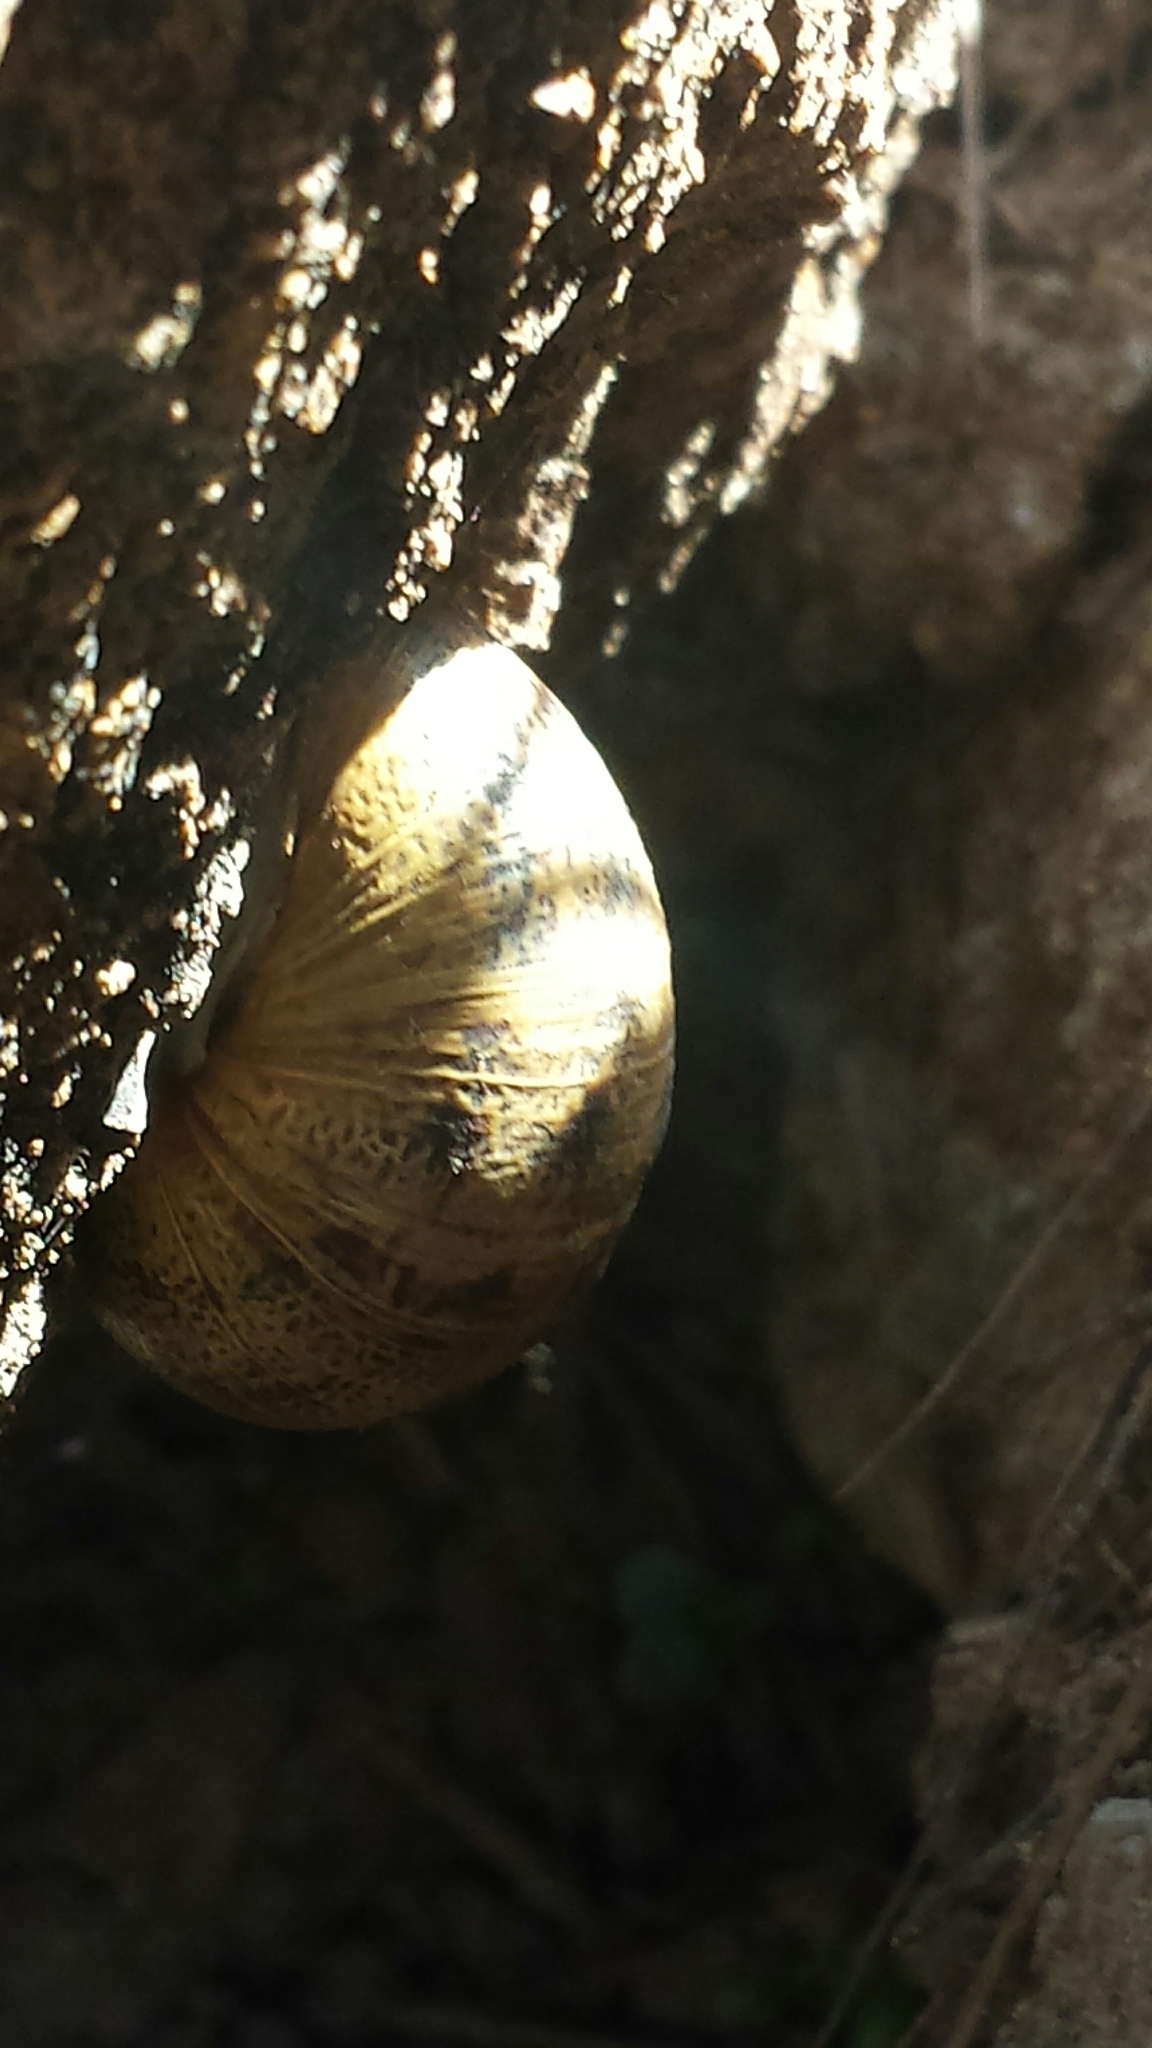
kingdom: Animalia
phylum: Mollusca
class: Gastropoda
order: Stylommatophora
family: Helicidae
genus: Cornu
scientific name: Cornu aspersum
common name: Brown garden snail
